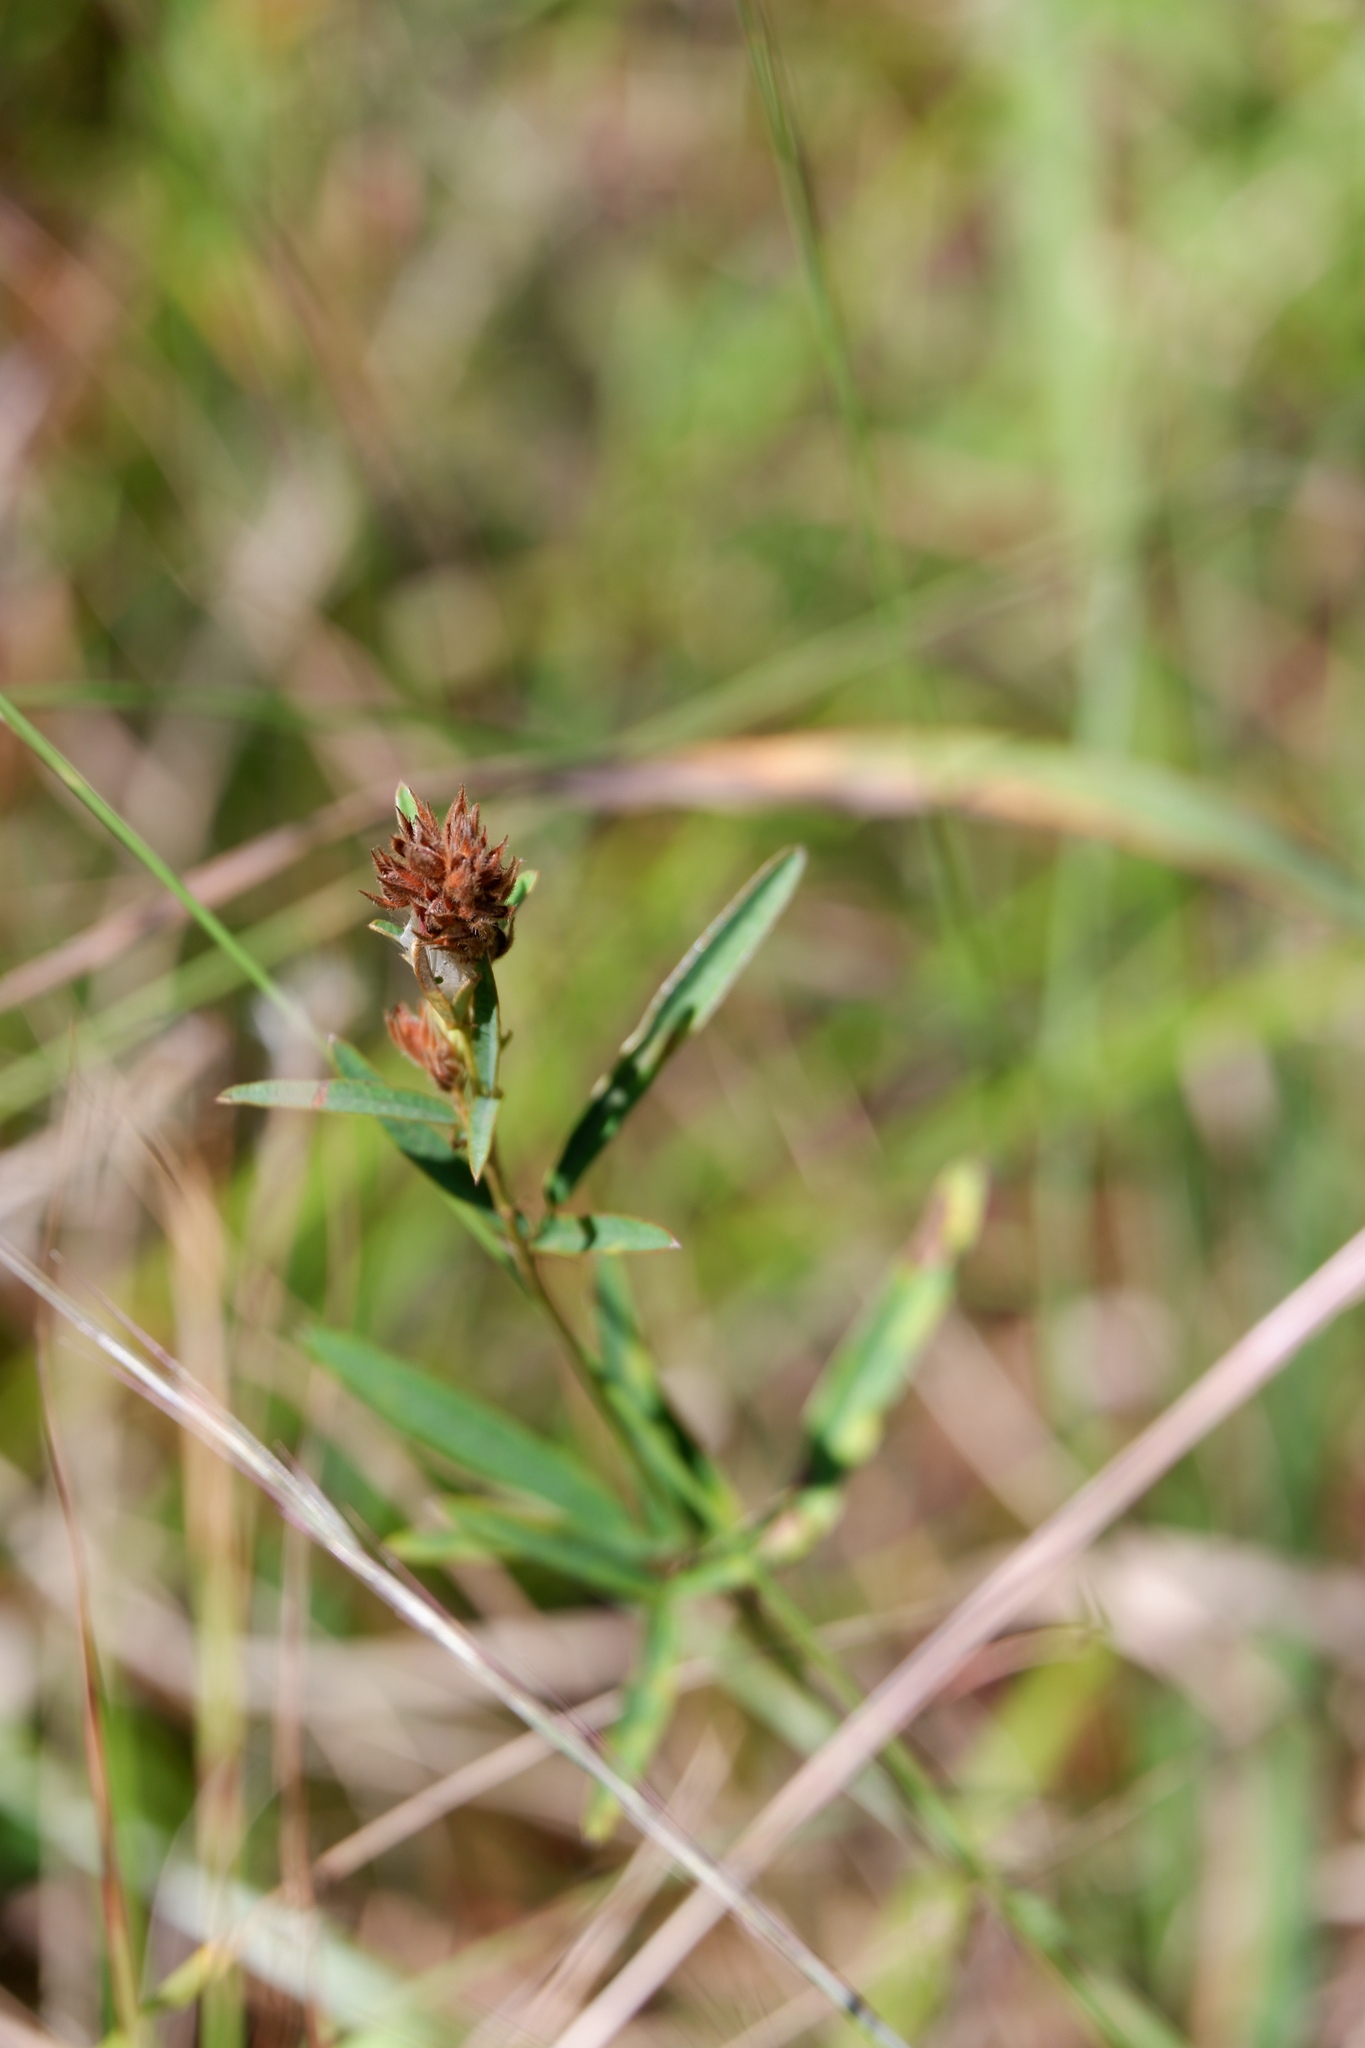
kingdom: Plantae
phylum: Tracheophyta
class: Magnoliopsida
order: Fabales
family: Fabaceae
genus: Lespedeza
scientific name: Lespedeza angustifolia
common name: Narrow-leaf bush-clover
